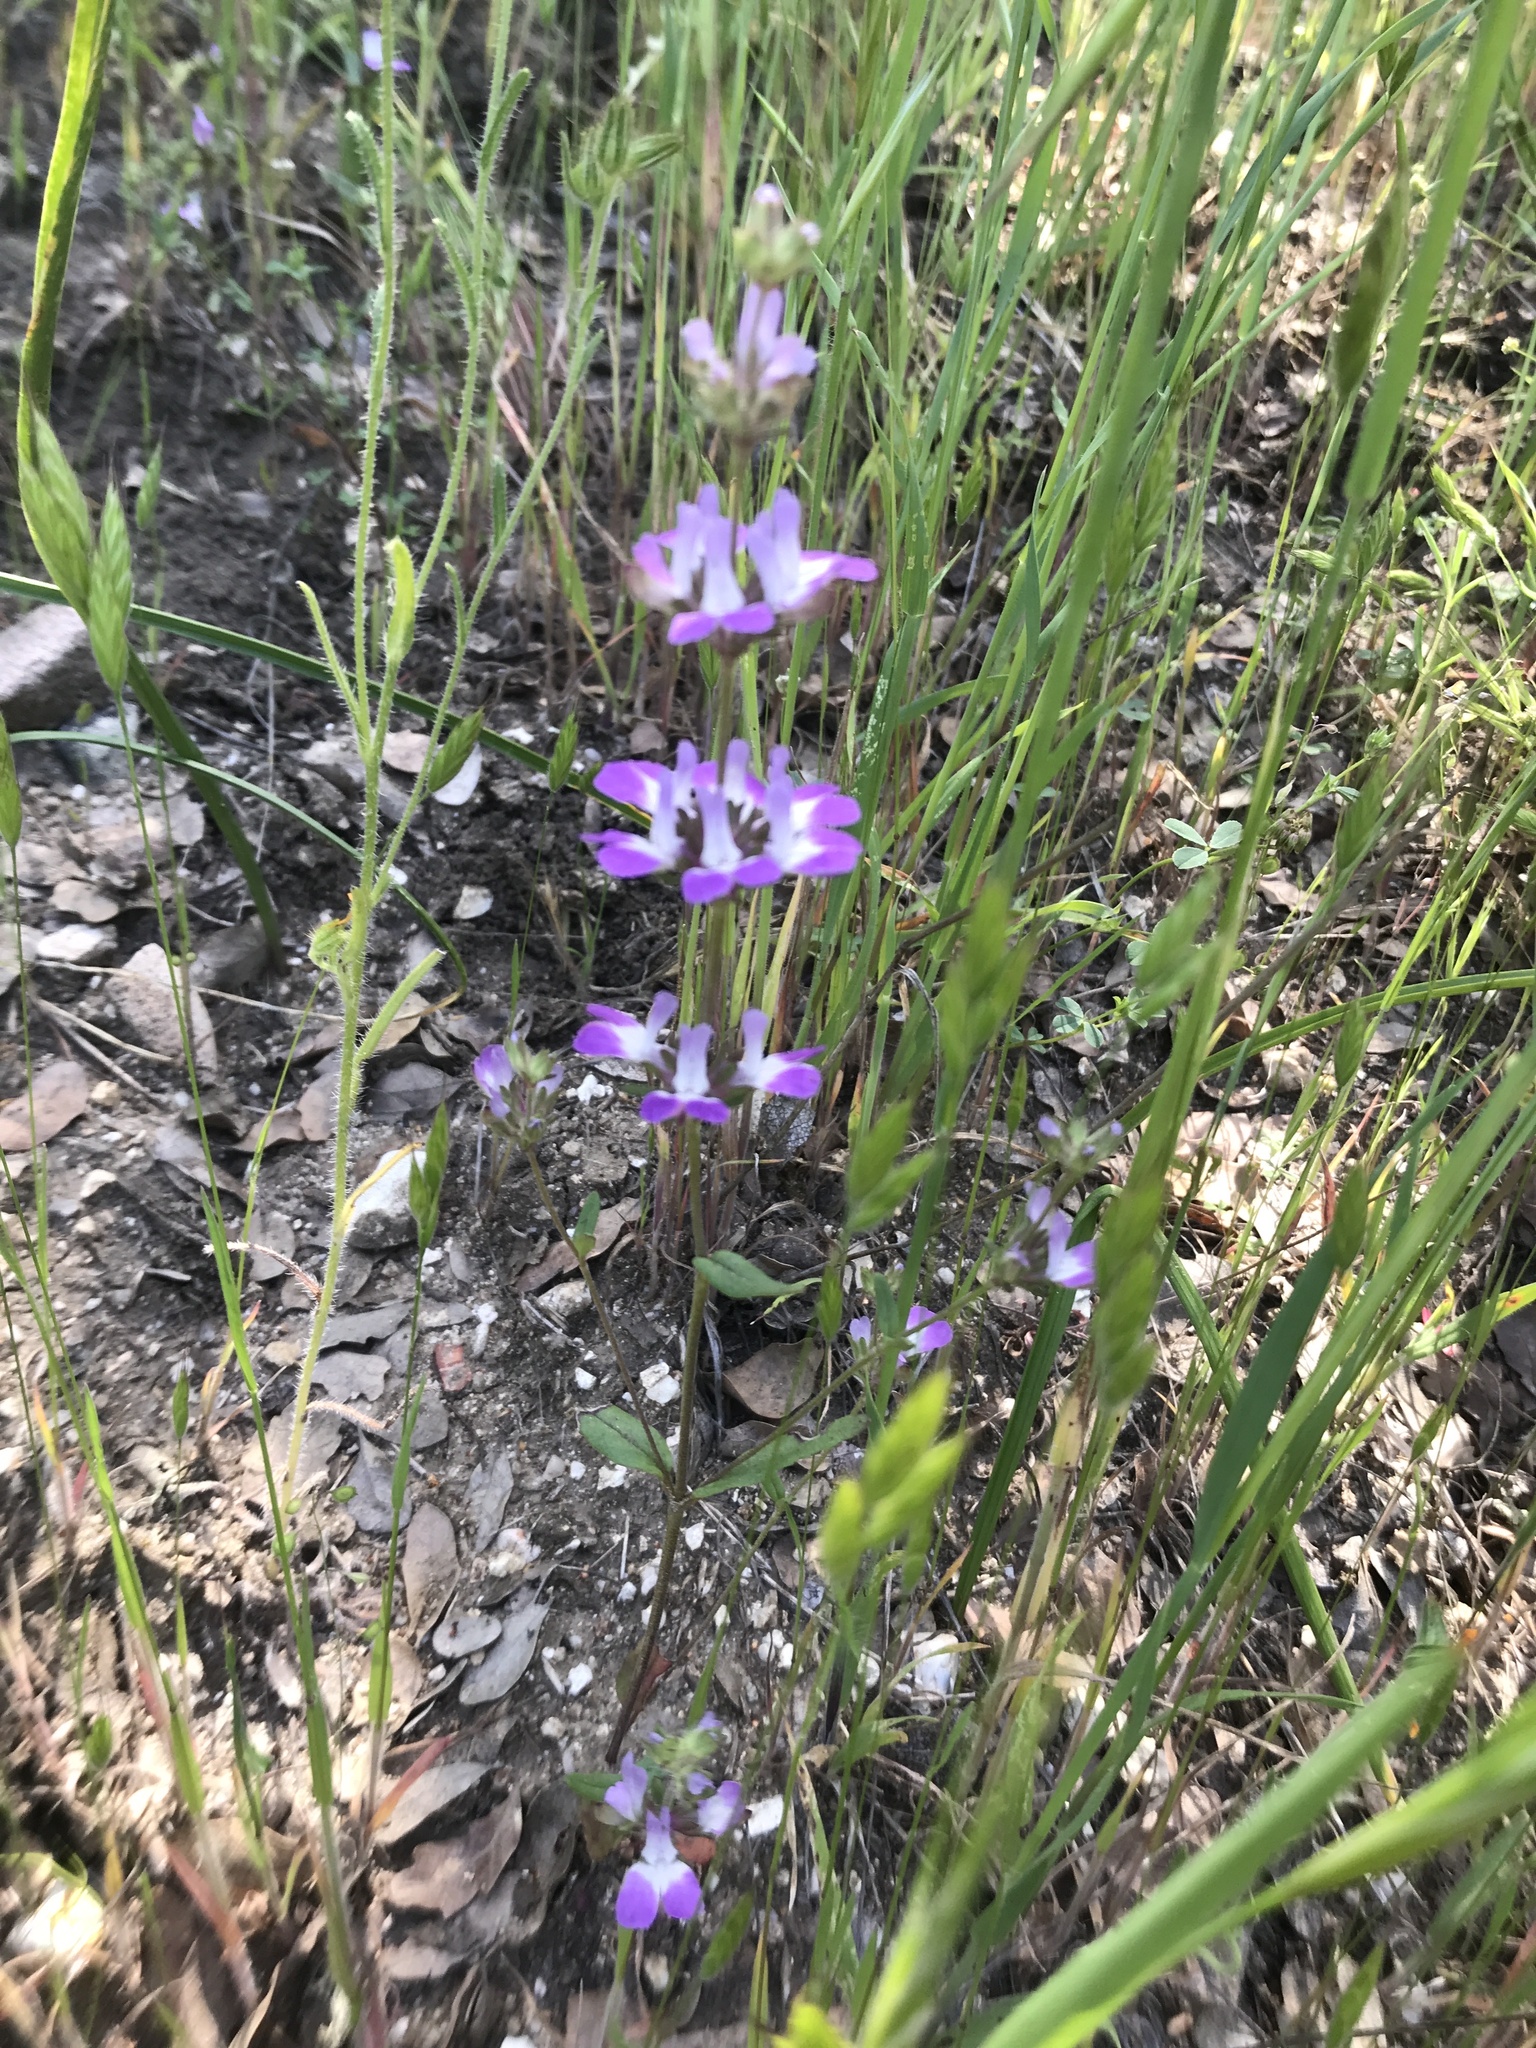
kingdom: Plantae
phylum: Tracheophyta
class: Magnoliopsida
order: Lamiales
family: Plantaginaceae
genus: Collinsia
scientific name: Collinsia heterophylla
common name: Chinese-houses
